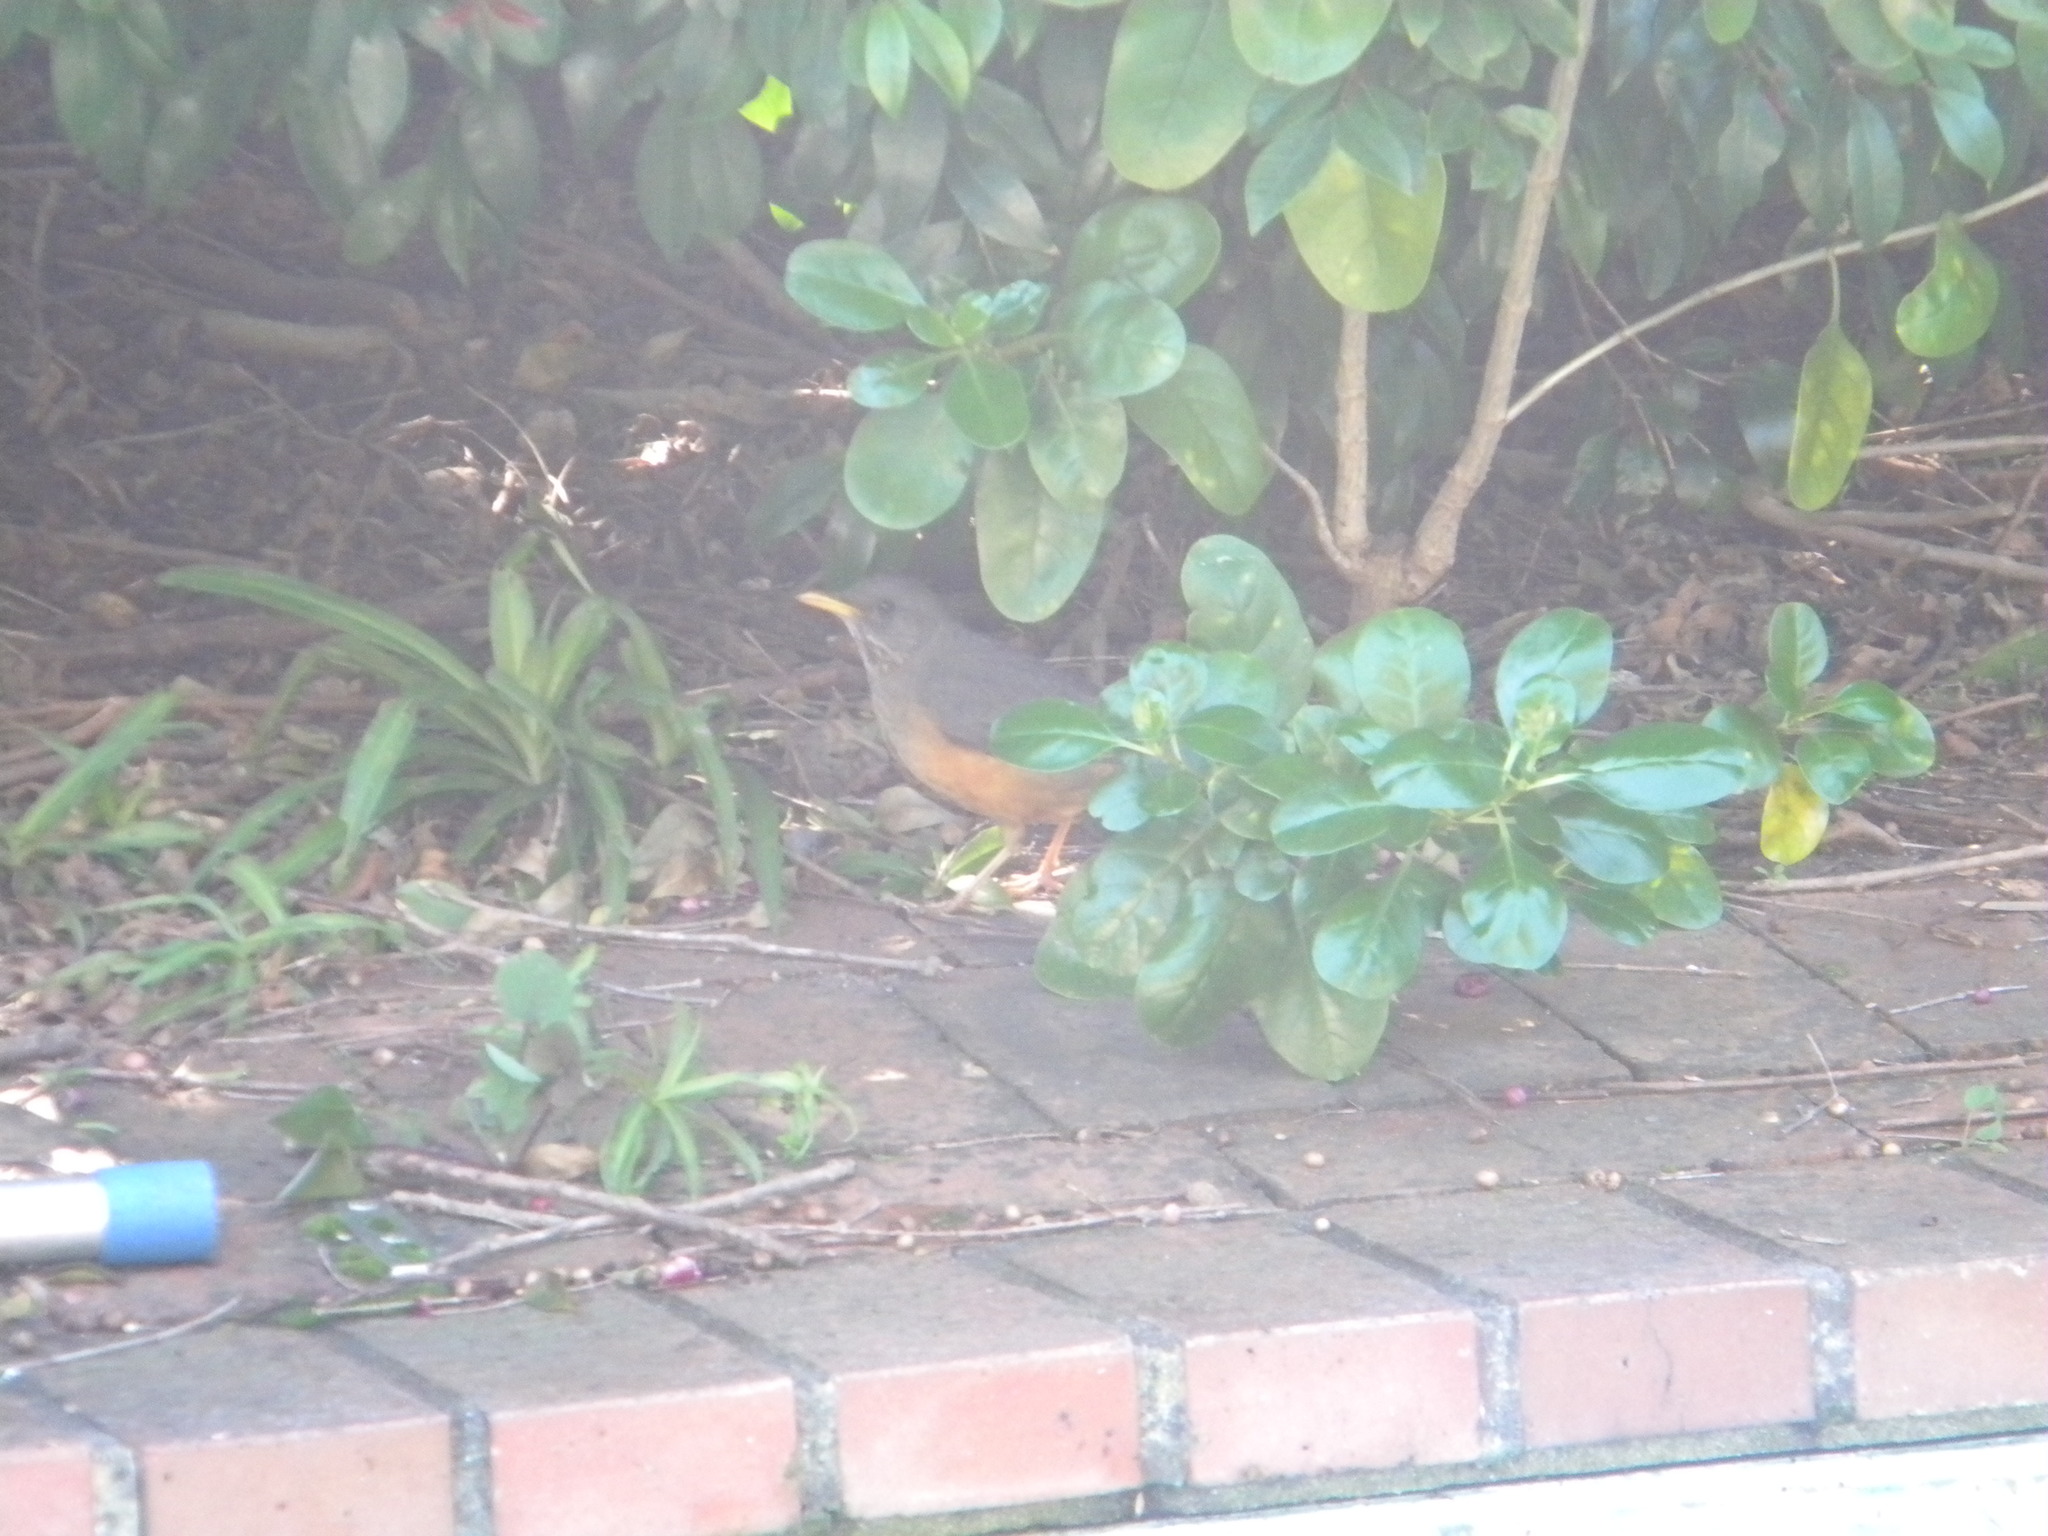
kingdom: Animalia
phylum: Chordata
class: Aves
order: Passeriformes
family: Turdidae
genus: Turdus
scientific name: Turdus olivaceus
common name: Olive thrush
